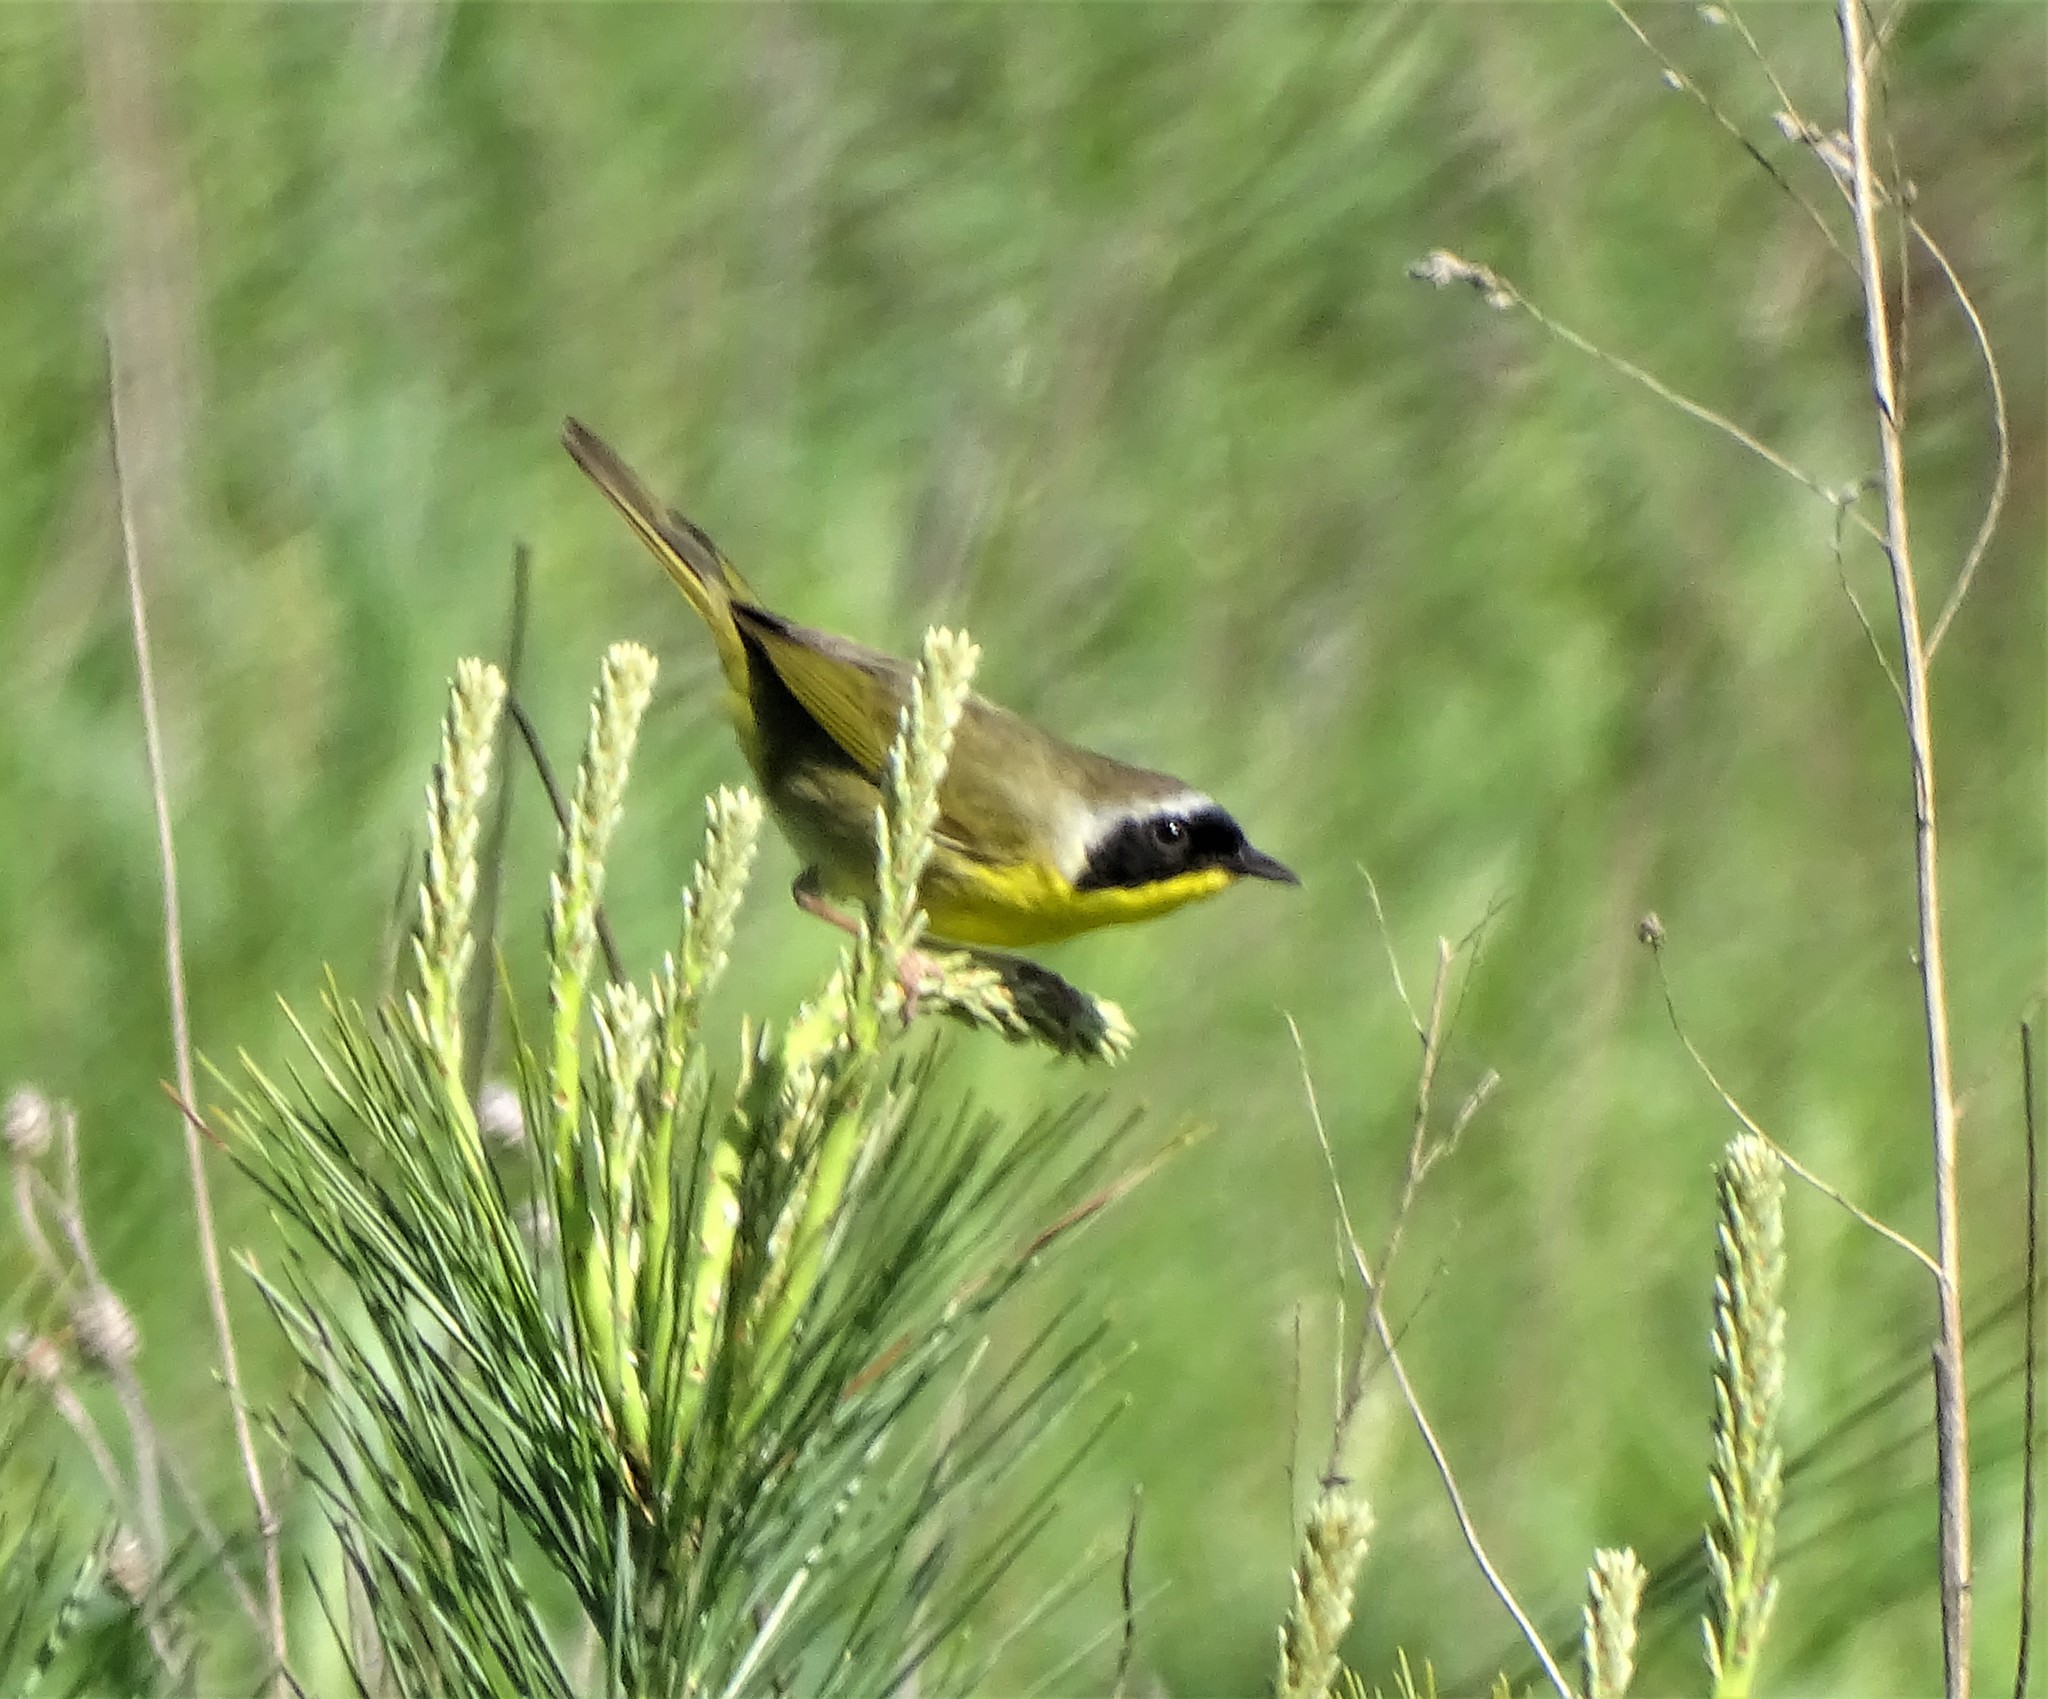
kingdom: Animalia
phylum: Chordata
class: Aves
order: Passeriformes
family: Parulidae
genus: Geothlypis
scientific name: Geothlypis trichas
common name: Common yellowthroat
